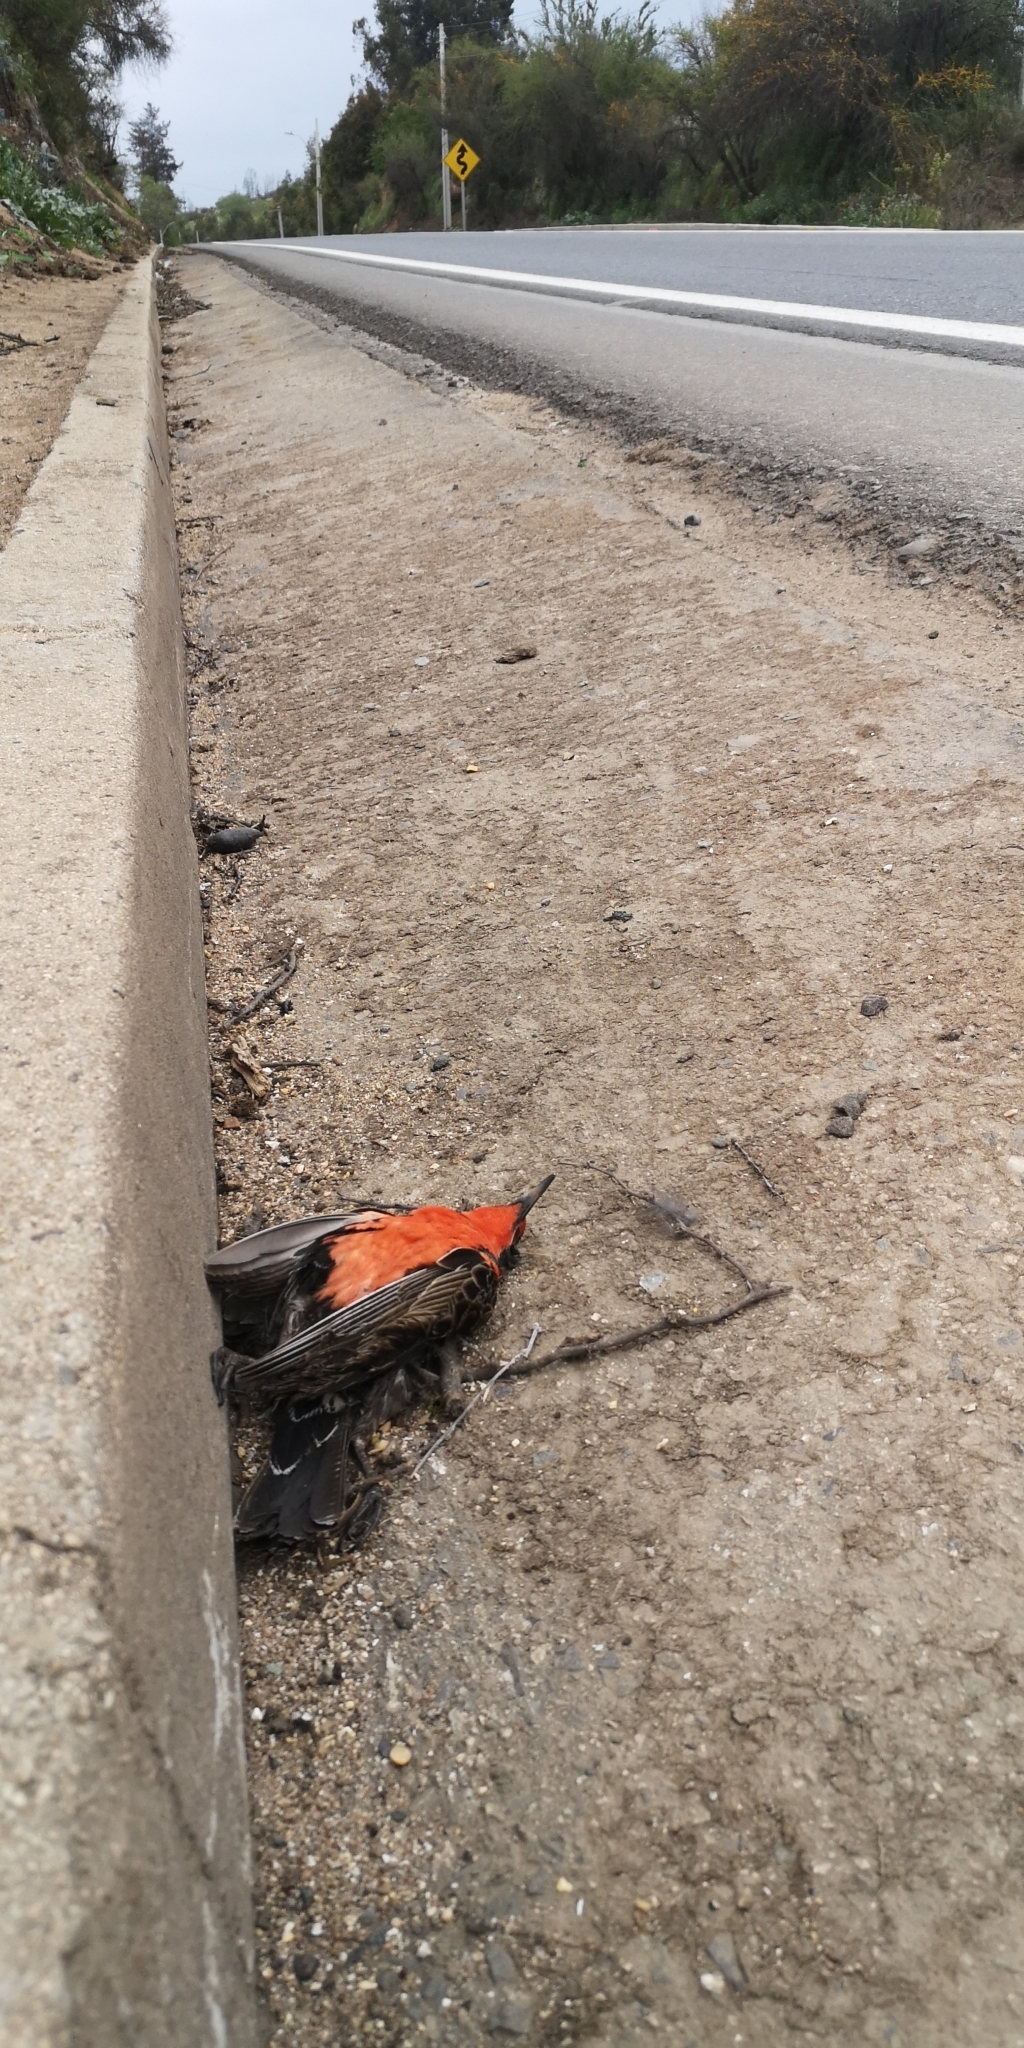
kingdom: Animalia
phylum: Chordata
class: Aves
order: Passeriformes
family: Icteridae
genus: Sturnella
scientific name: Sturnella loyca
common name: Long-tailed meadowlark
